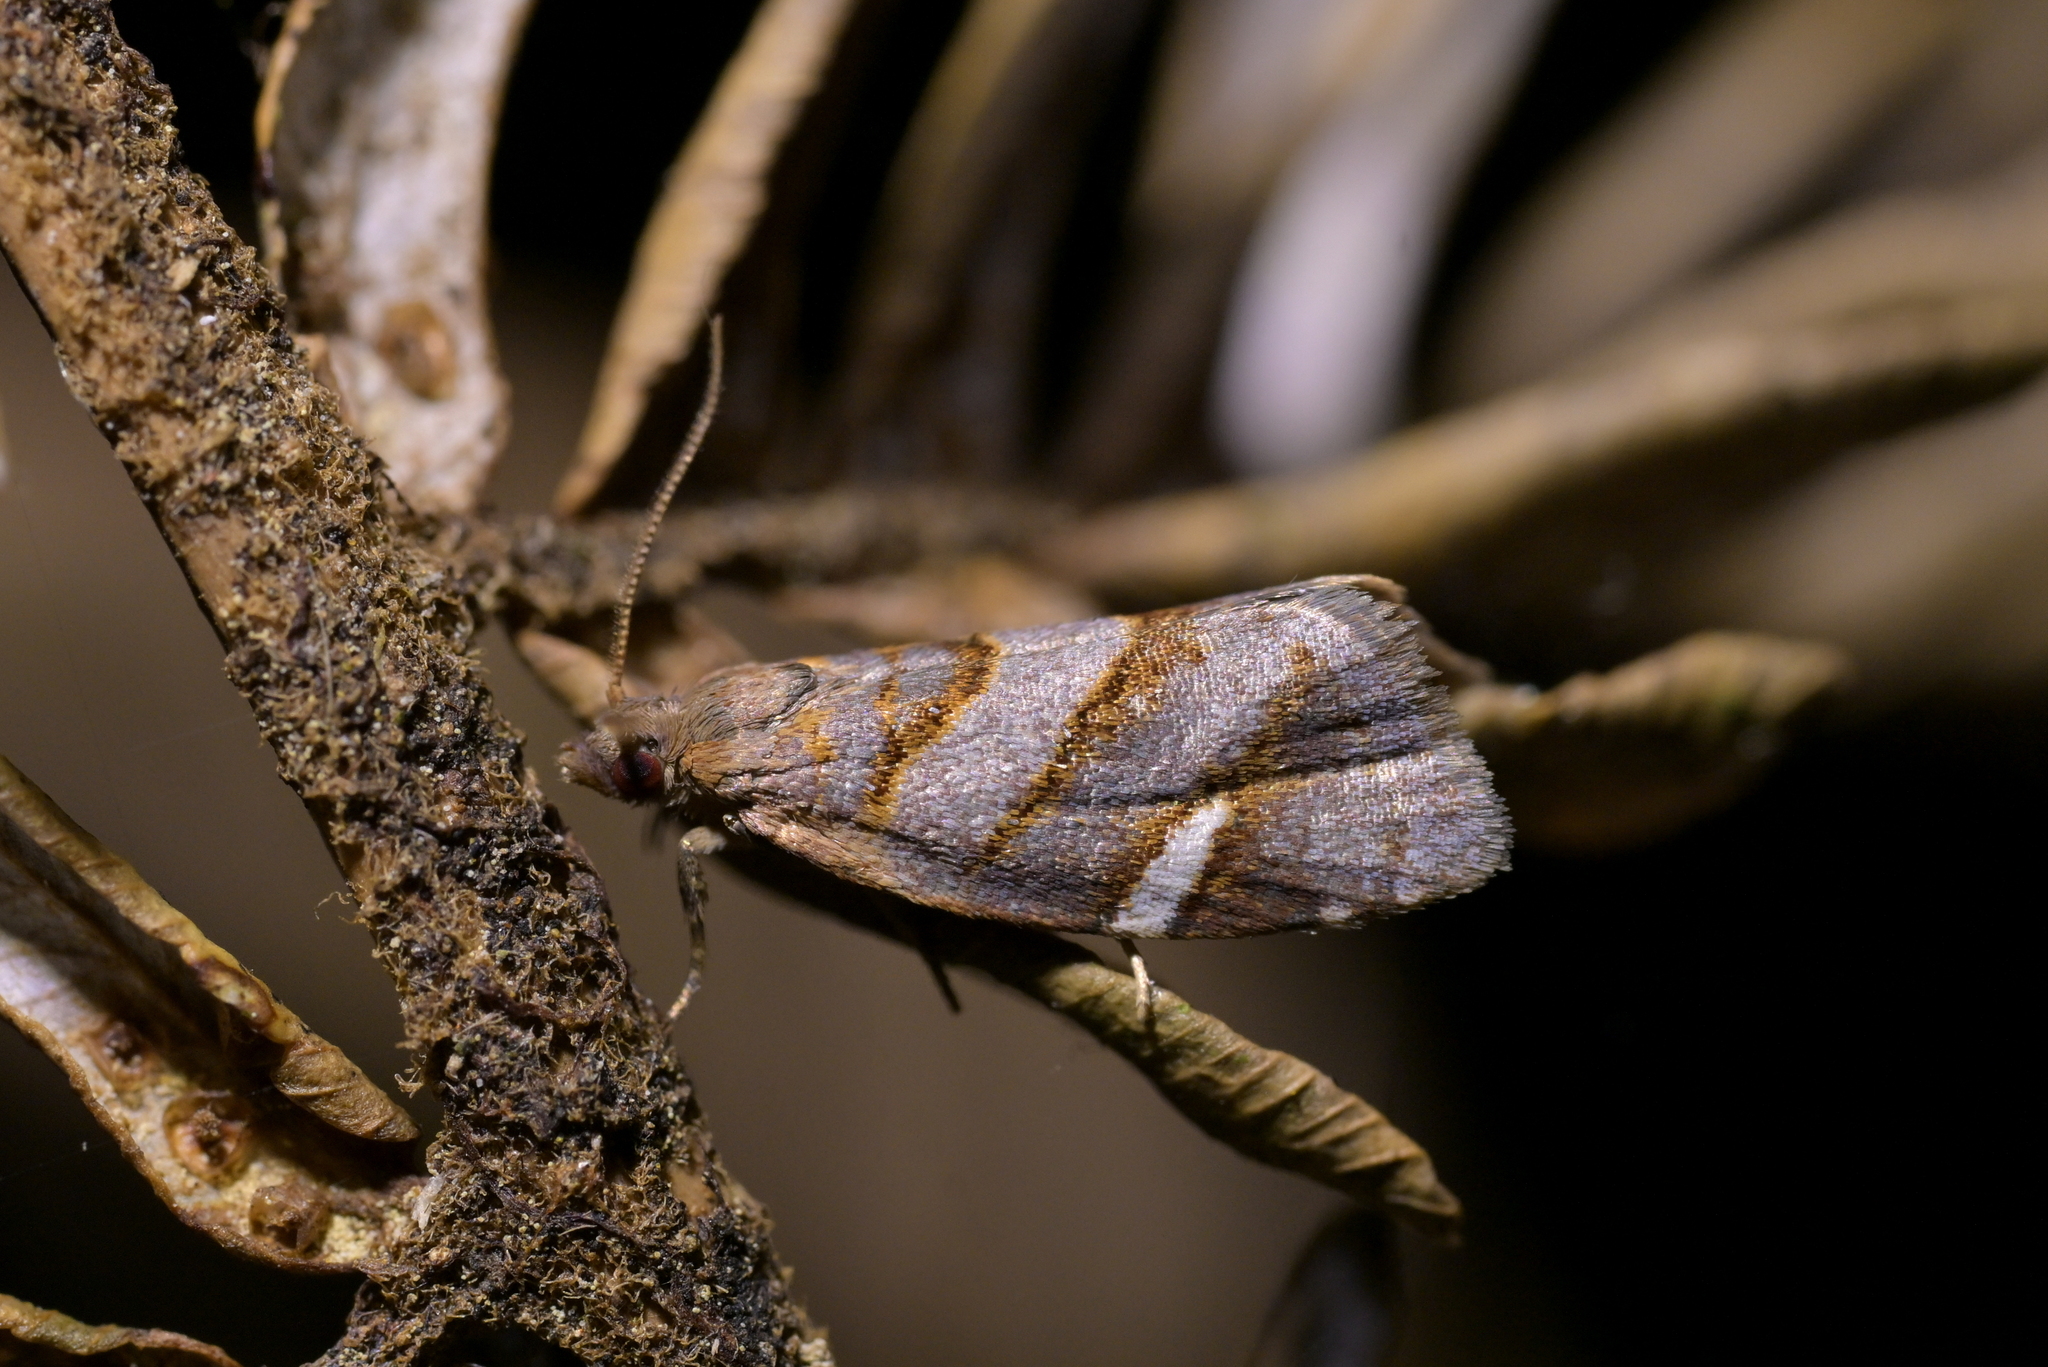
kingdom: Animalia
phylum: Arthropoda
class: Insecta
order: Lepidoptera
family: Tortricidae
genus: Ecclitica
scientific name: Ecclitica torogramma
